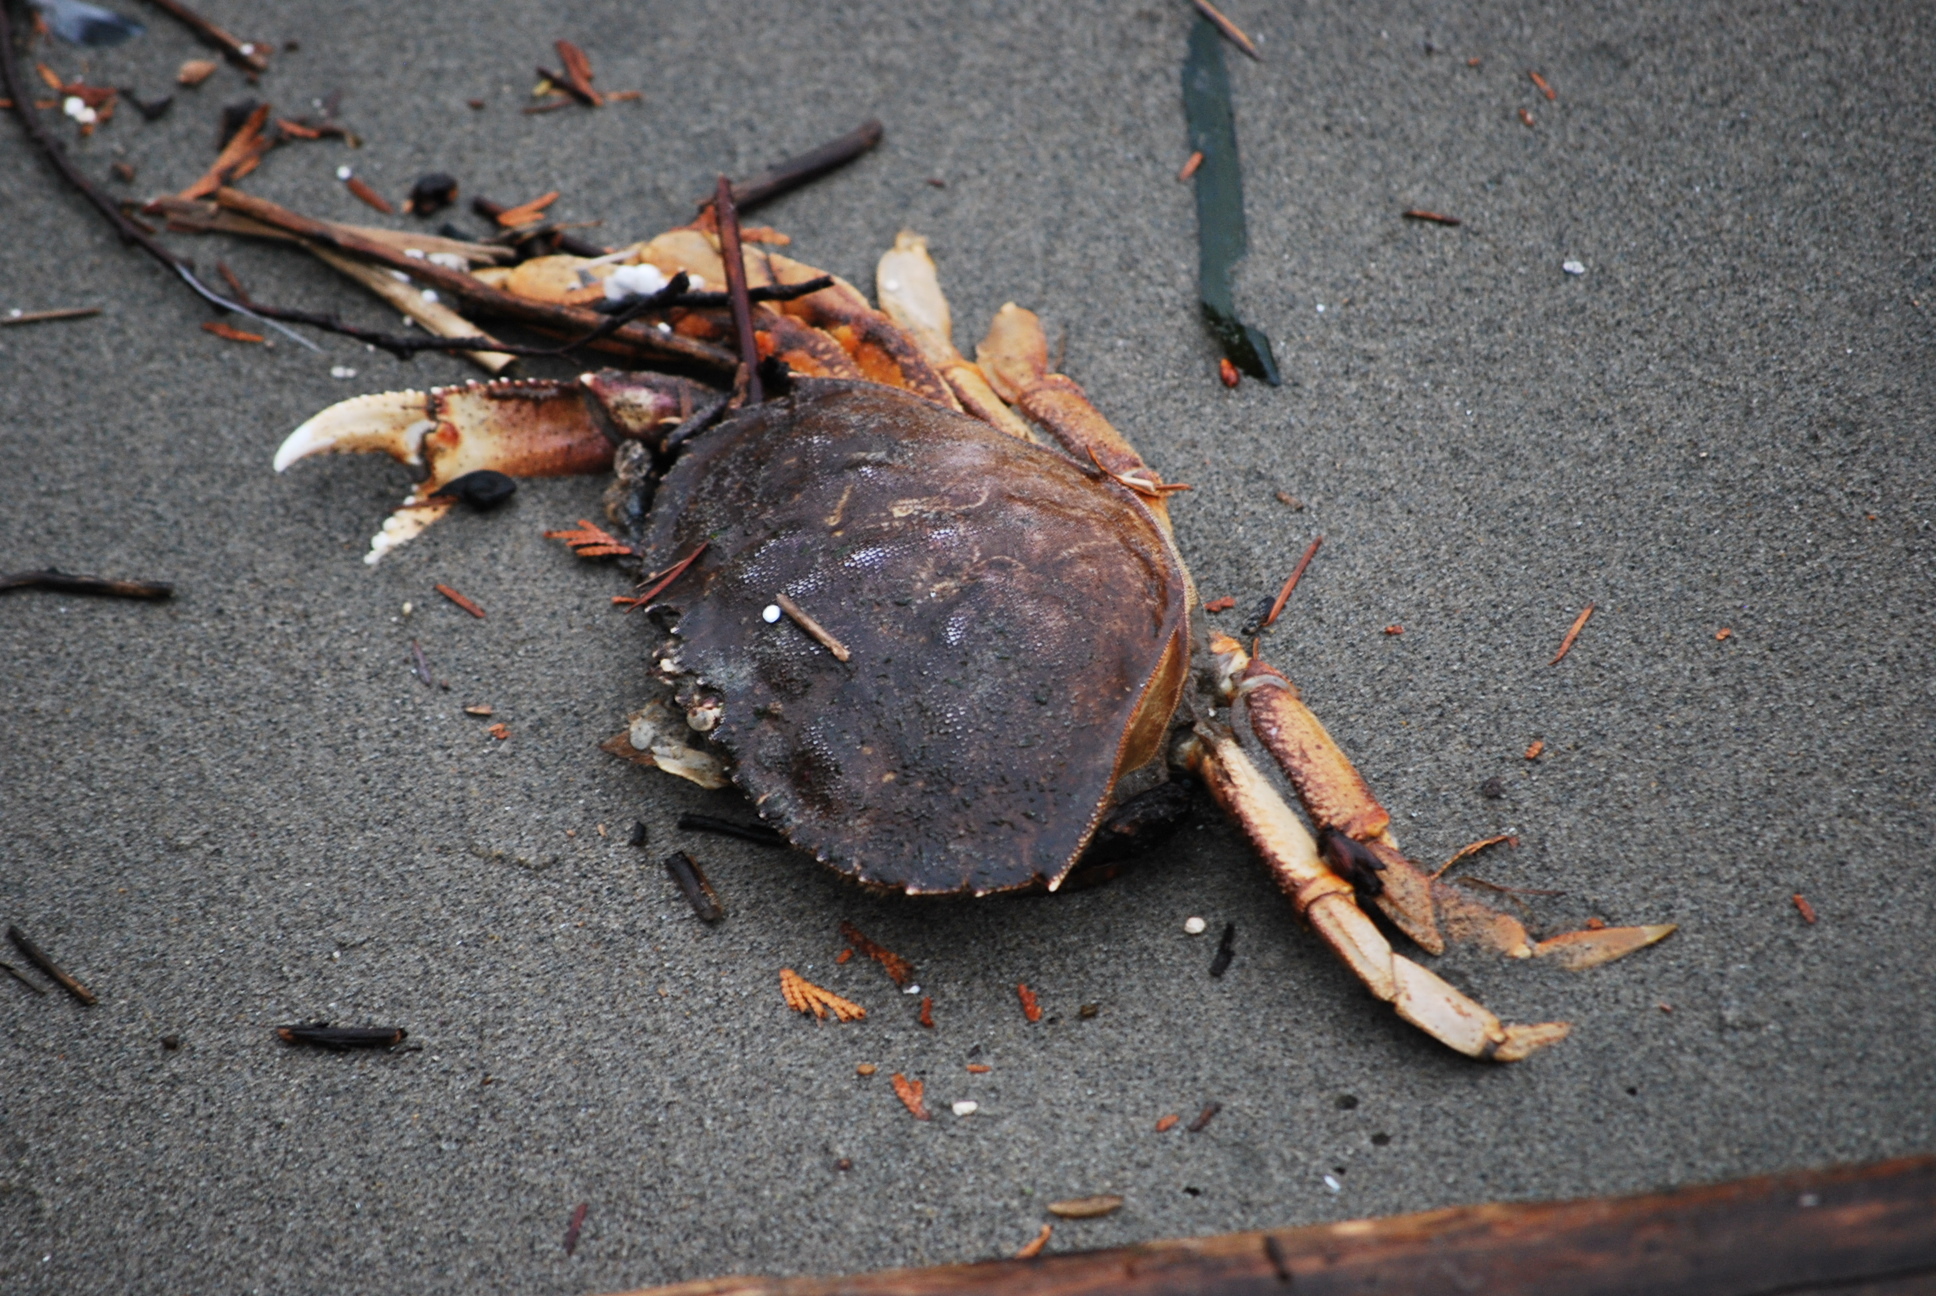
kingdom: Animalia
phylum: Arthropoda
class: Malacostraca
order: Decapoda
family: Cancridae
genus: Metacarcinus
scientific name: Metacarcinus magister
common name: Californian crab
